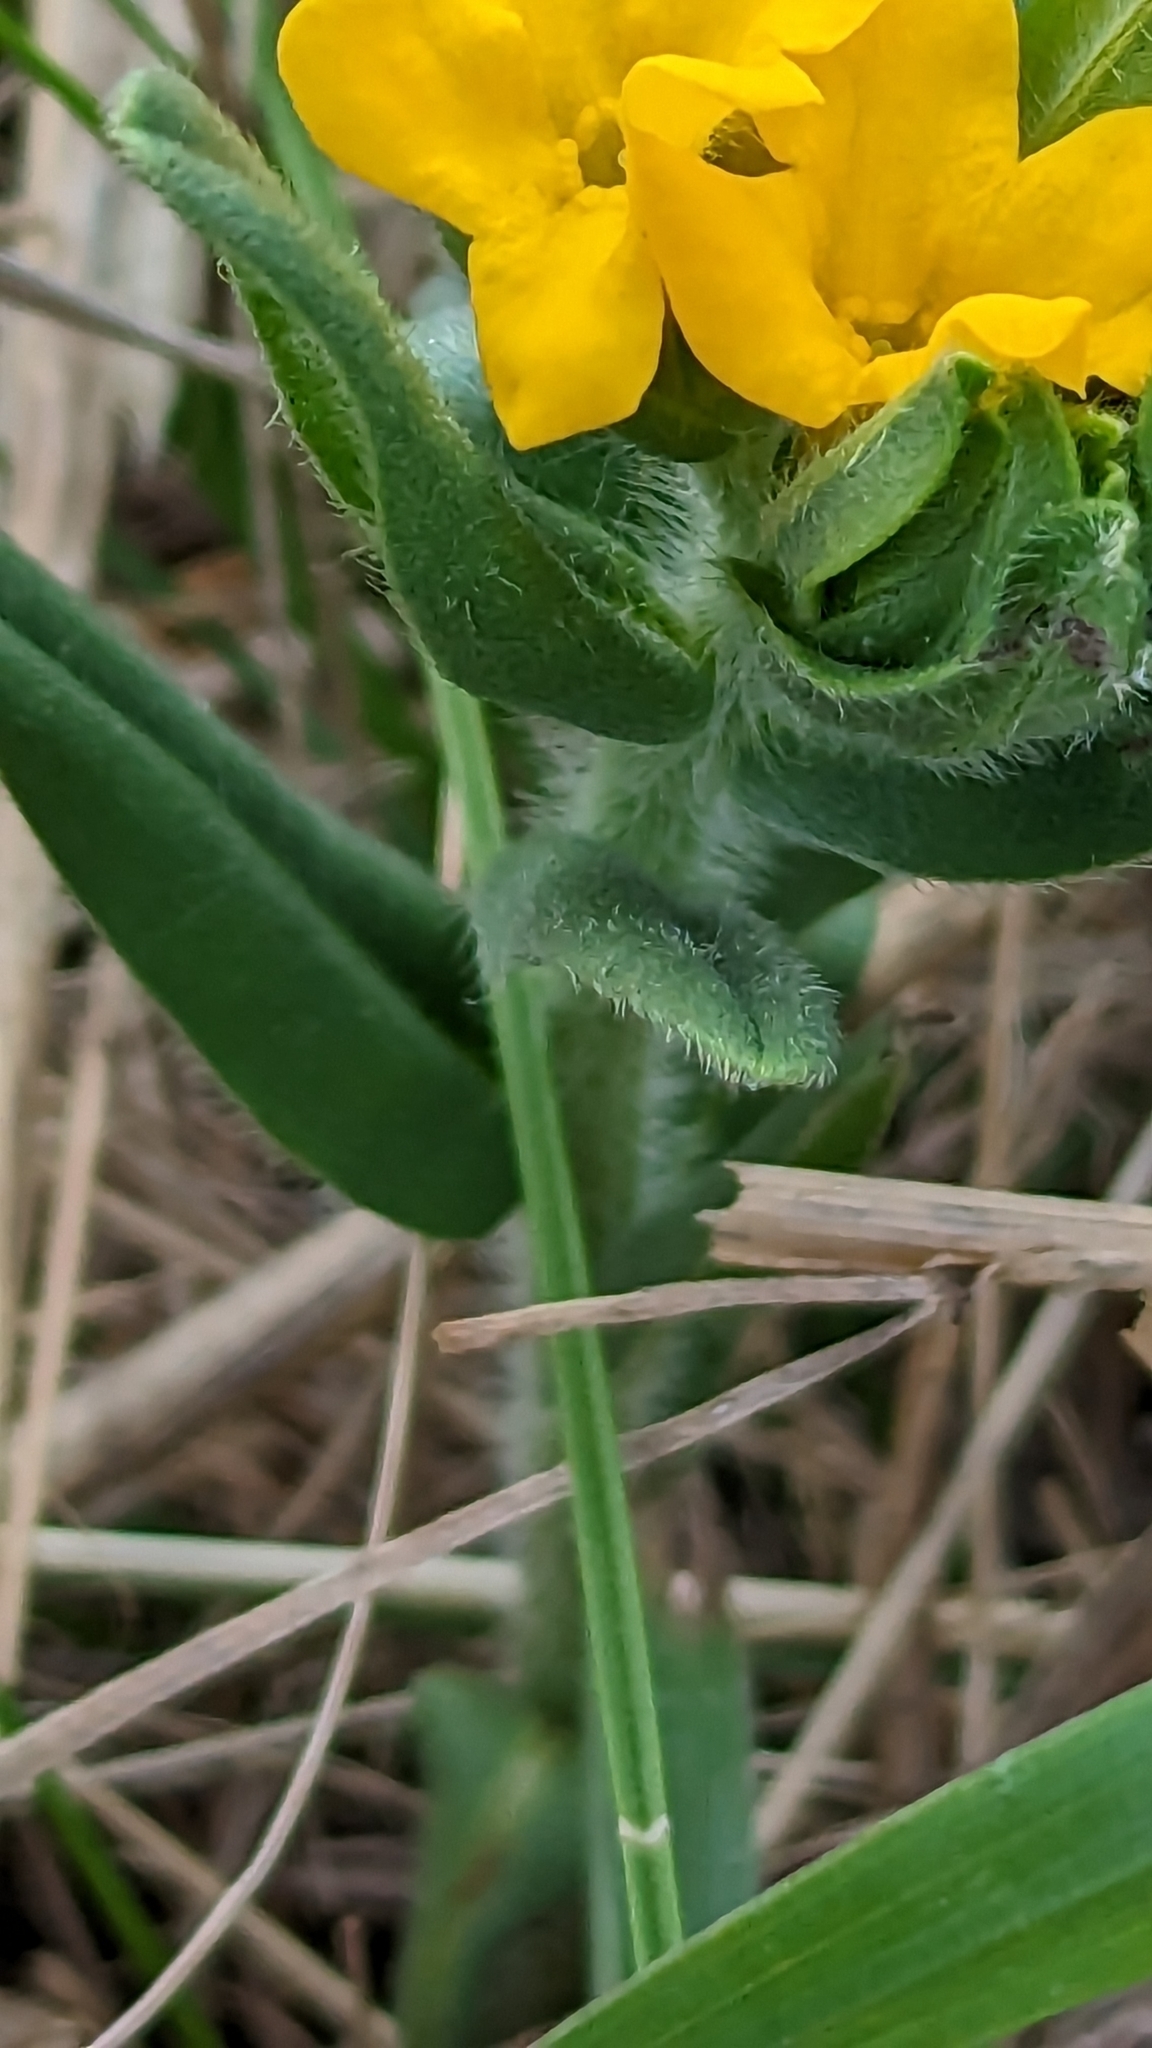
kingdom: Plantae
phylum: Tracheophyta
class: Magnoliopsida
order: Boraginales
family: Boraginaceae
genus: Lithospermum
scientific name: Lithospermum canescens
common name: Hoary puccoon
